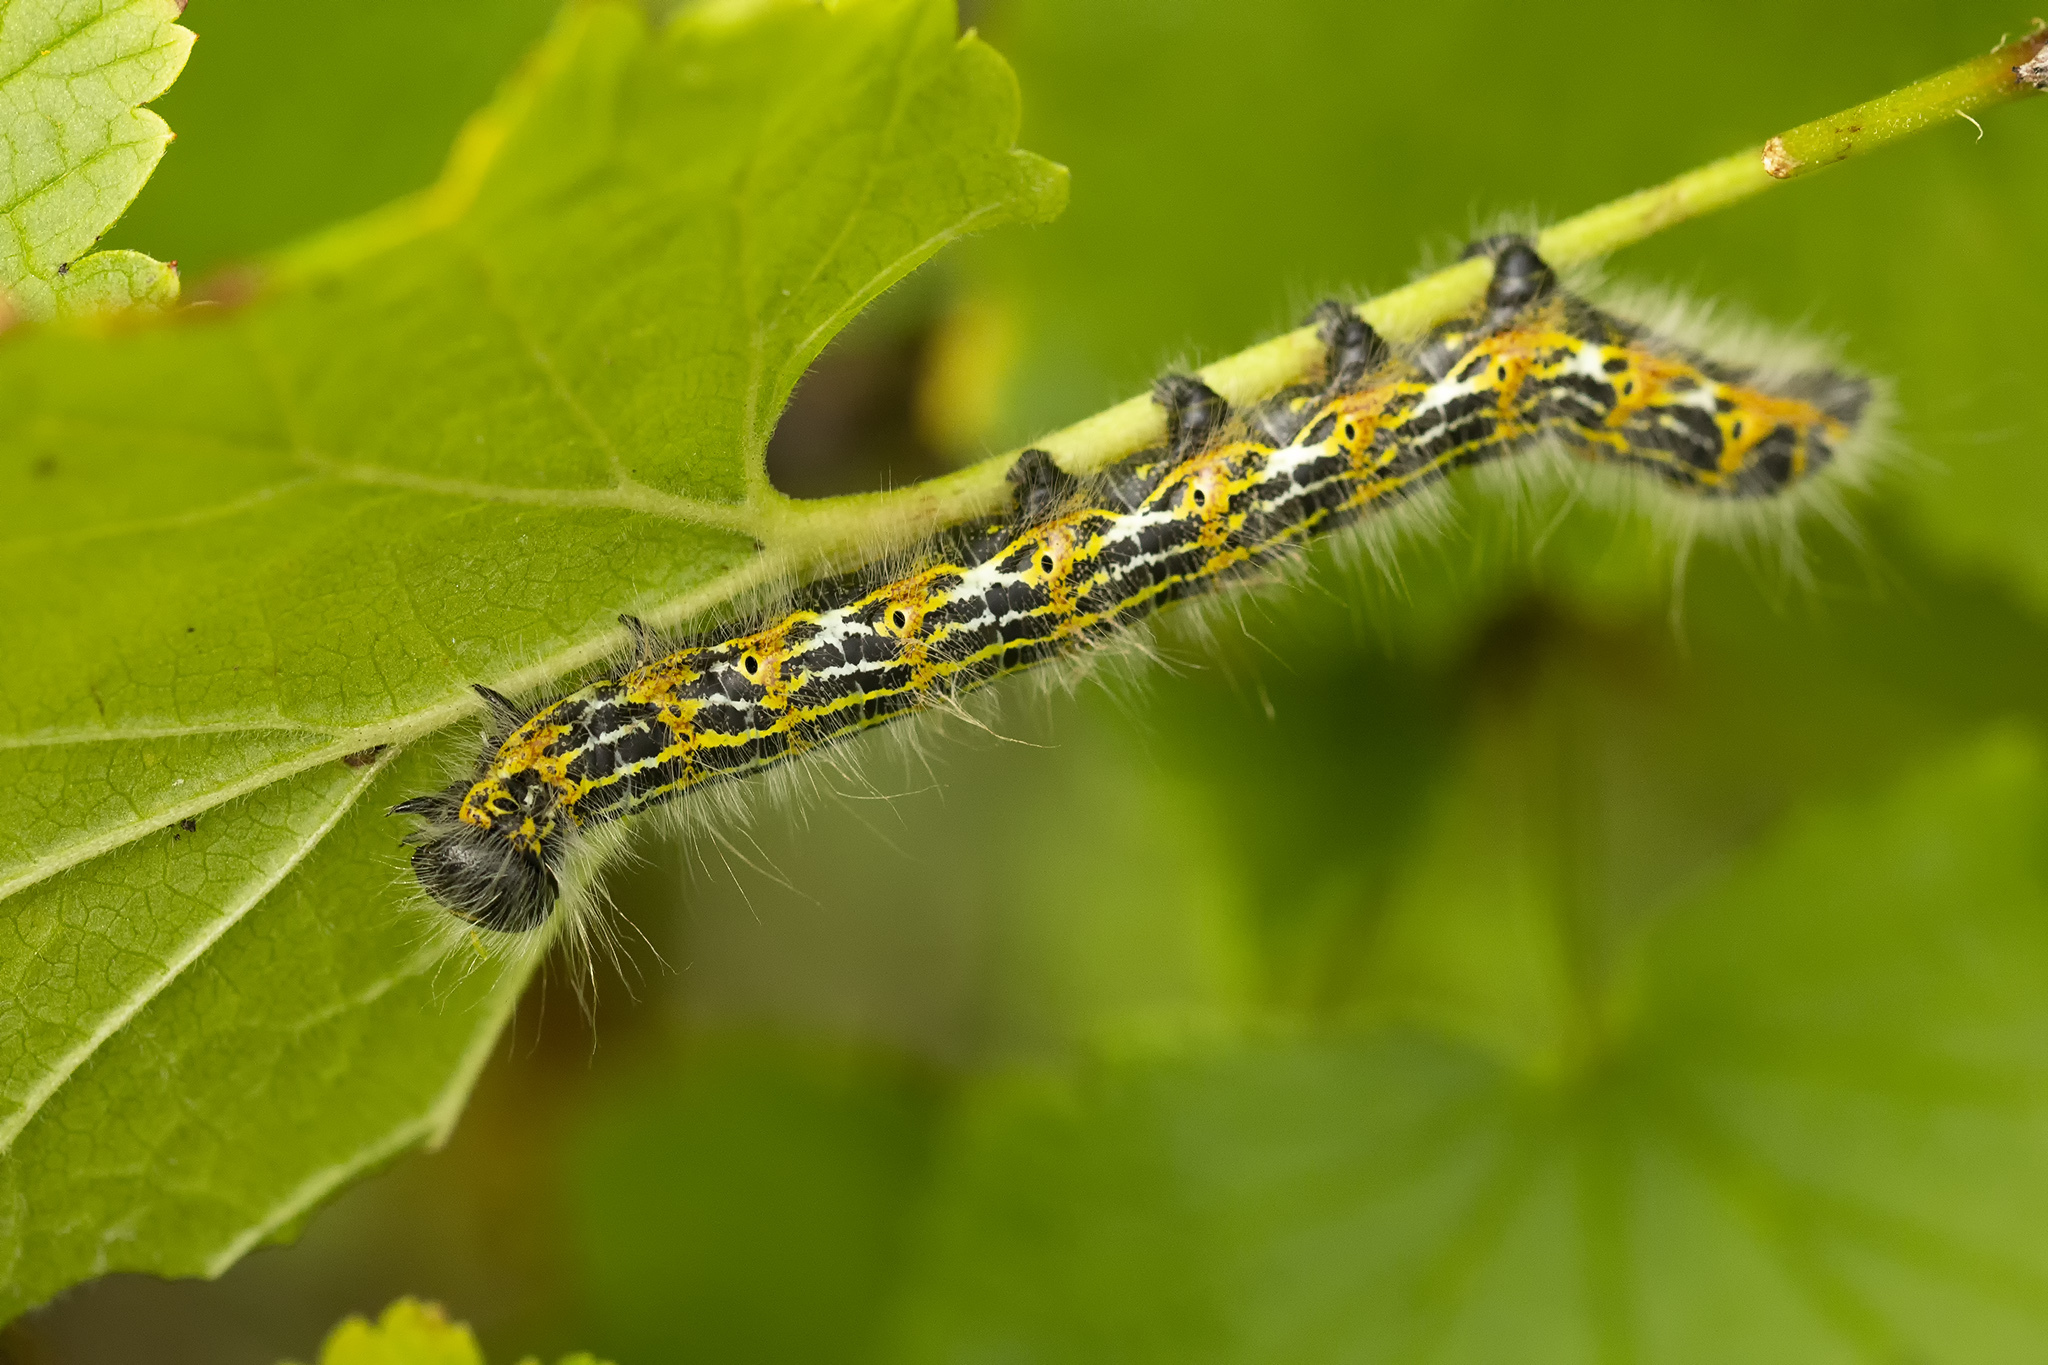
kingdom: Animalia
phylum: Arthropoda
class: Insecta
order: Lepidoptera
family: Notodontidae
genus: Phalera
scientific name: Phalera bucephala
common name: Buff-tip
